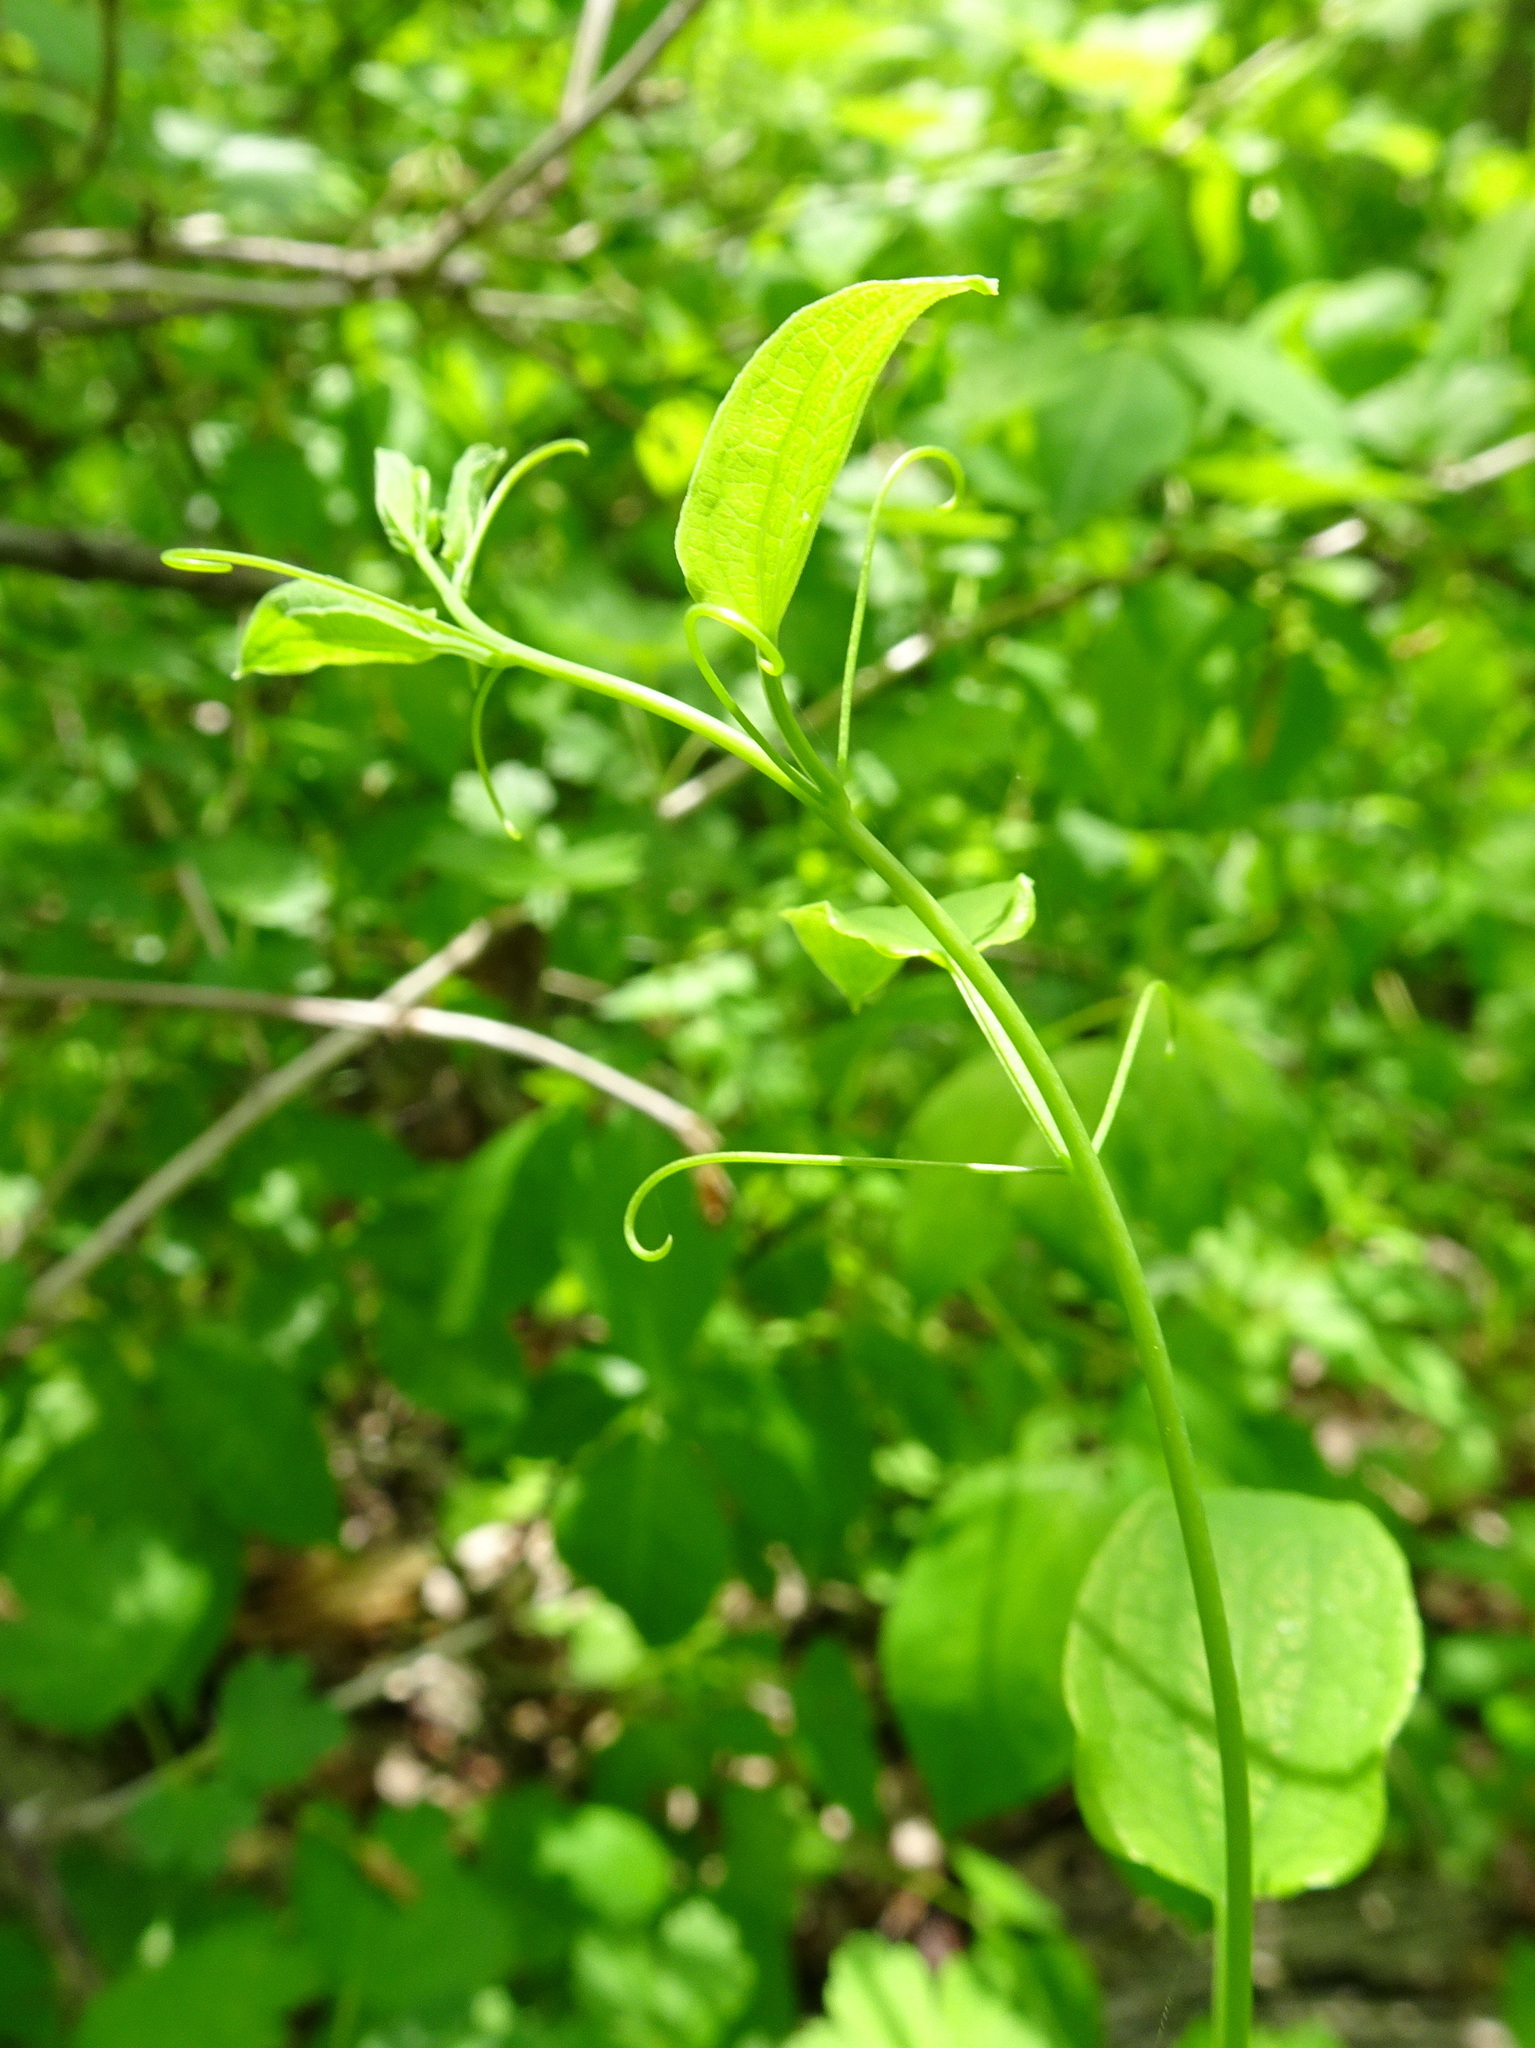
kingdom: Plantae
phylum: Tracheophyta
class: Liliopsida
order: Liliales
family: Smilacaceae
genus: Smilax
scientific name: Smilax lasioneura
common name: Blue ridge carrionflower
